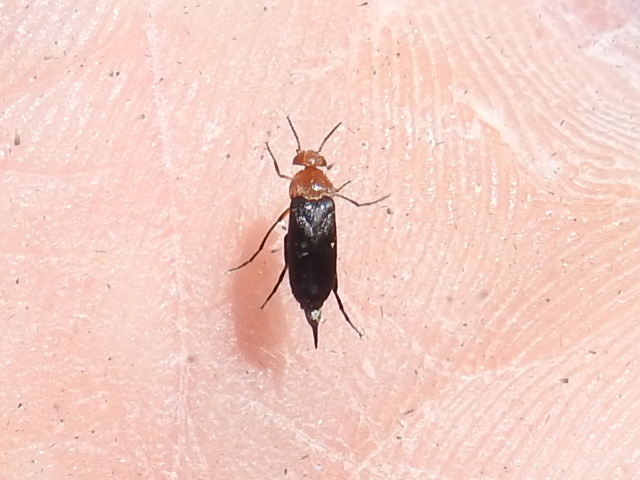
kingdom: Animalia
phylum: Arthropoda
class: Insecta
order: Coleoptera
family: Mordellidae
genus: Mordellistena
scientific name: Mordellistena cervicalis
